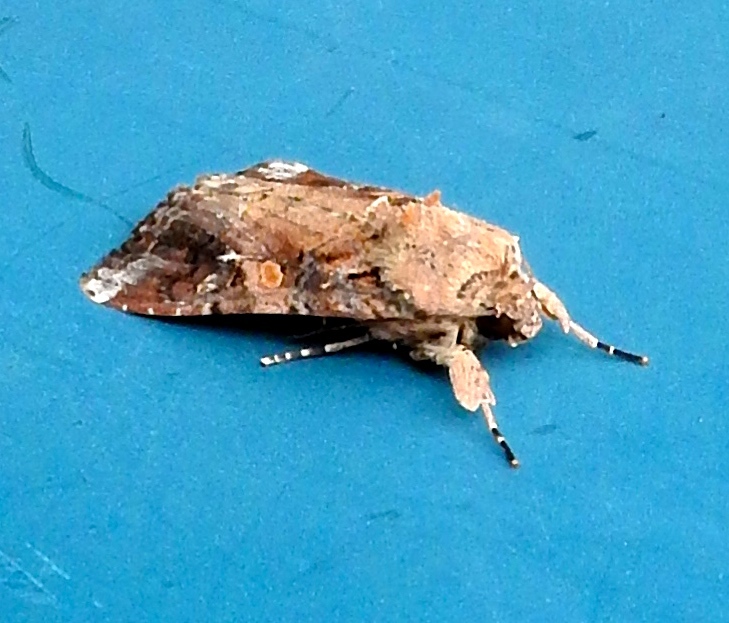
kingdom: Animalia
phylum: Arthropoda
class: Insecta
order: Lepidoptera
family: Noctuidae
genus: Spodoptera
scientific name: Spodoptera
